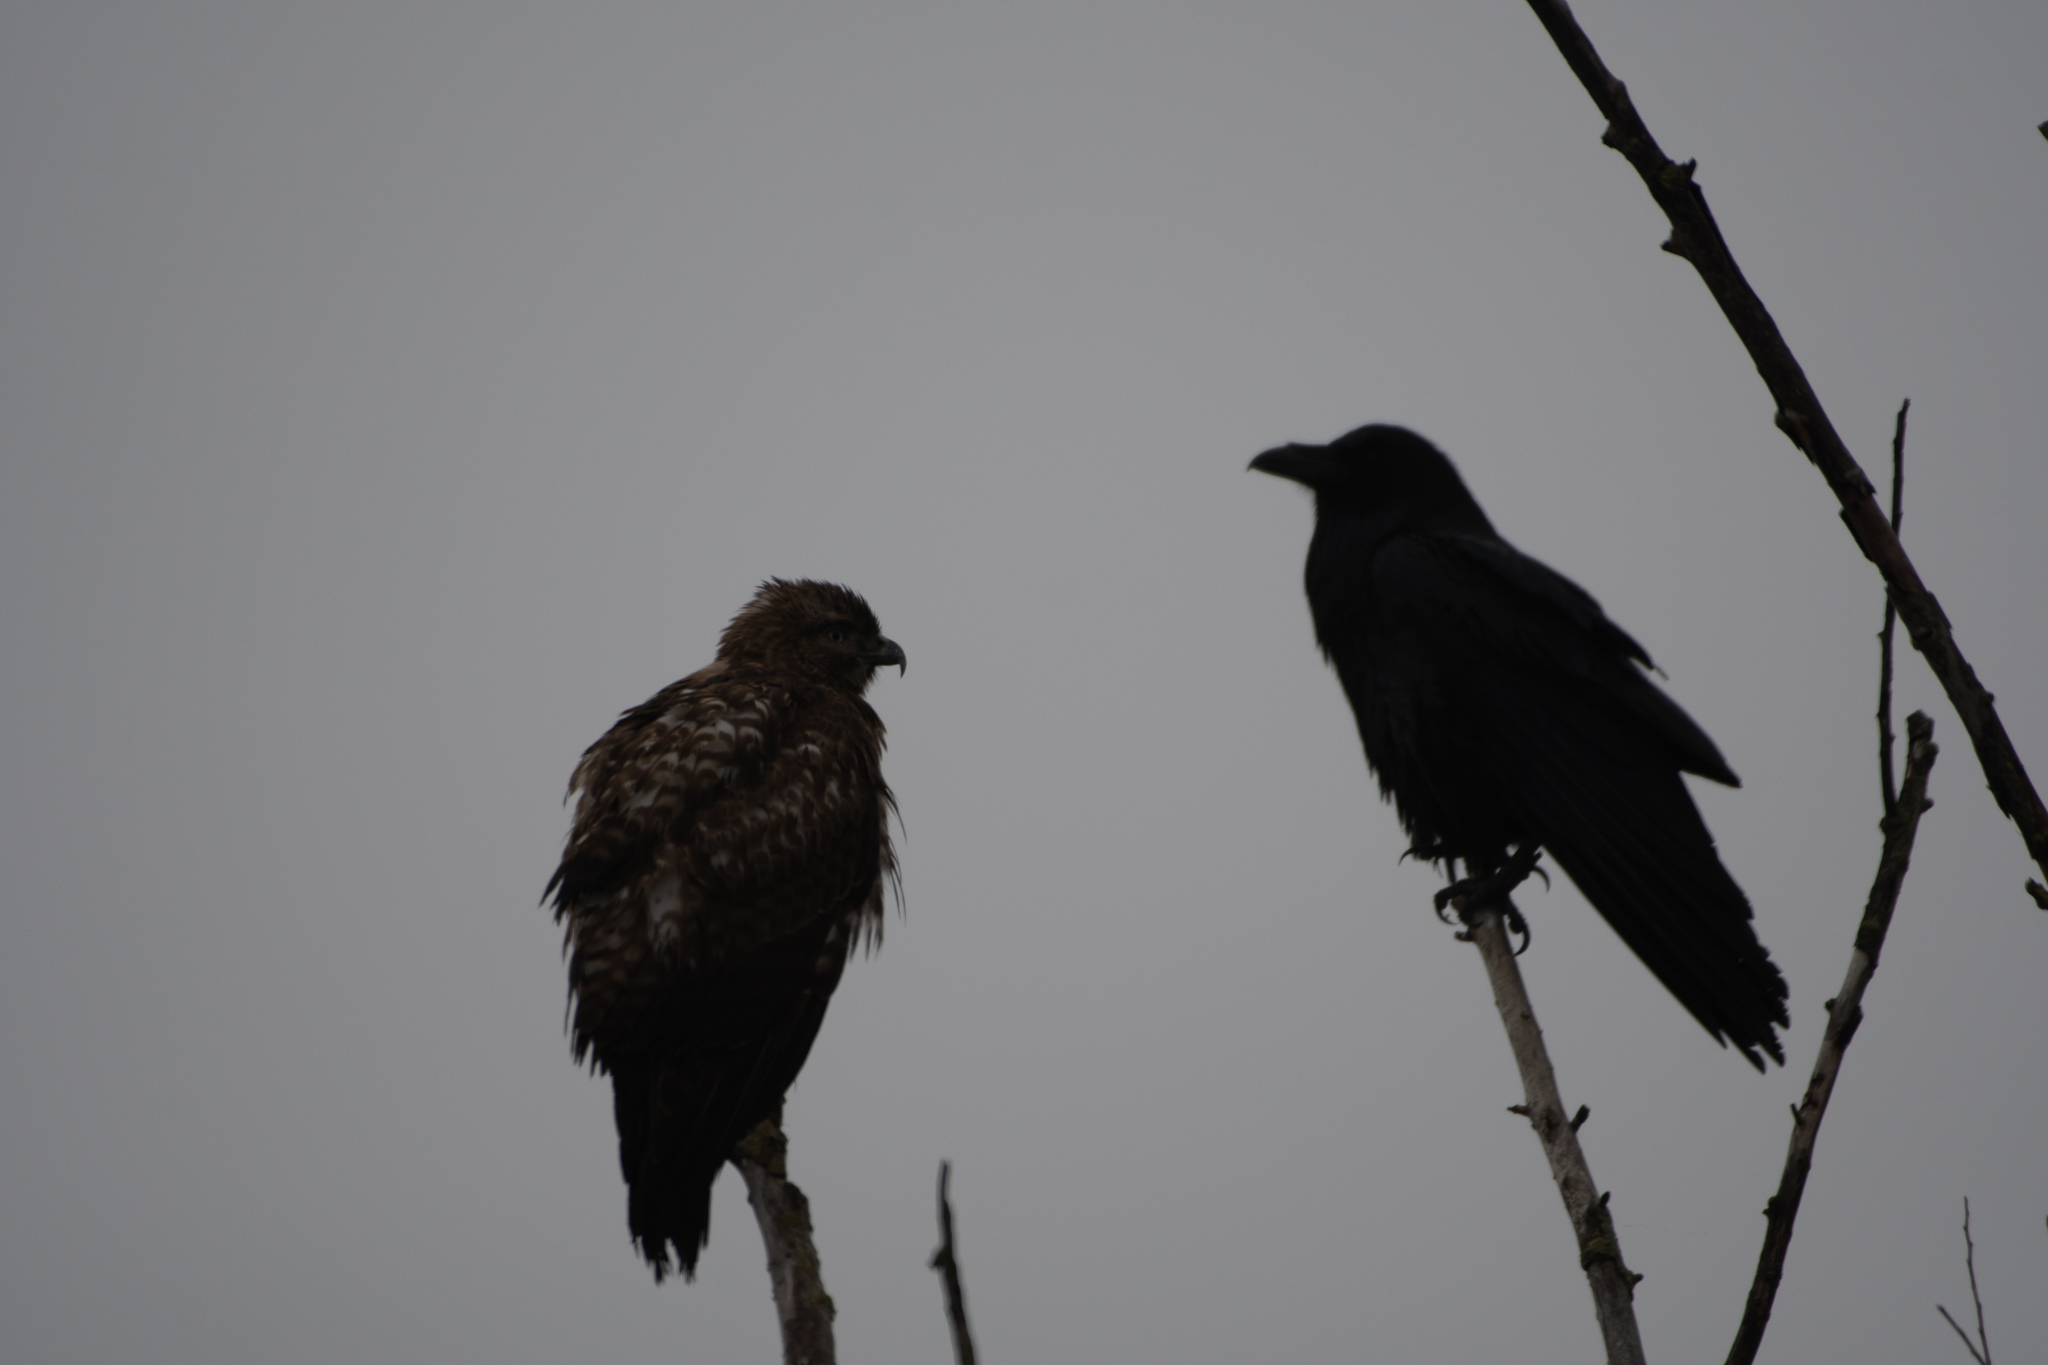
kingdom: Animalia
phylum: Chordata
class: Aves
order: Passeriformes
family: Corvidae
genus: Corvus
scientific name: Corvus corax
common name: Common raven
